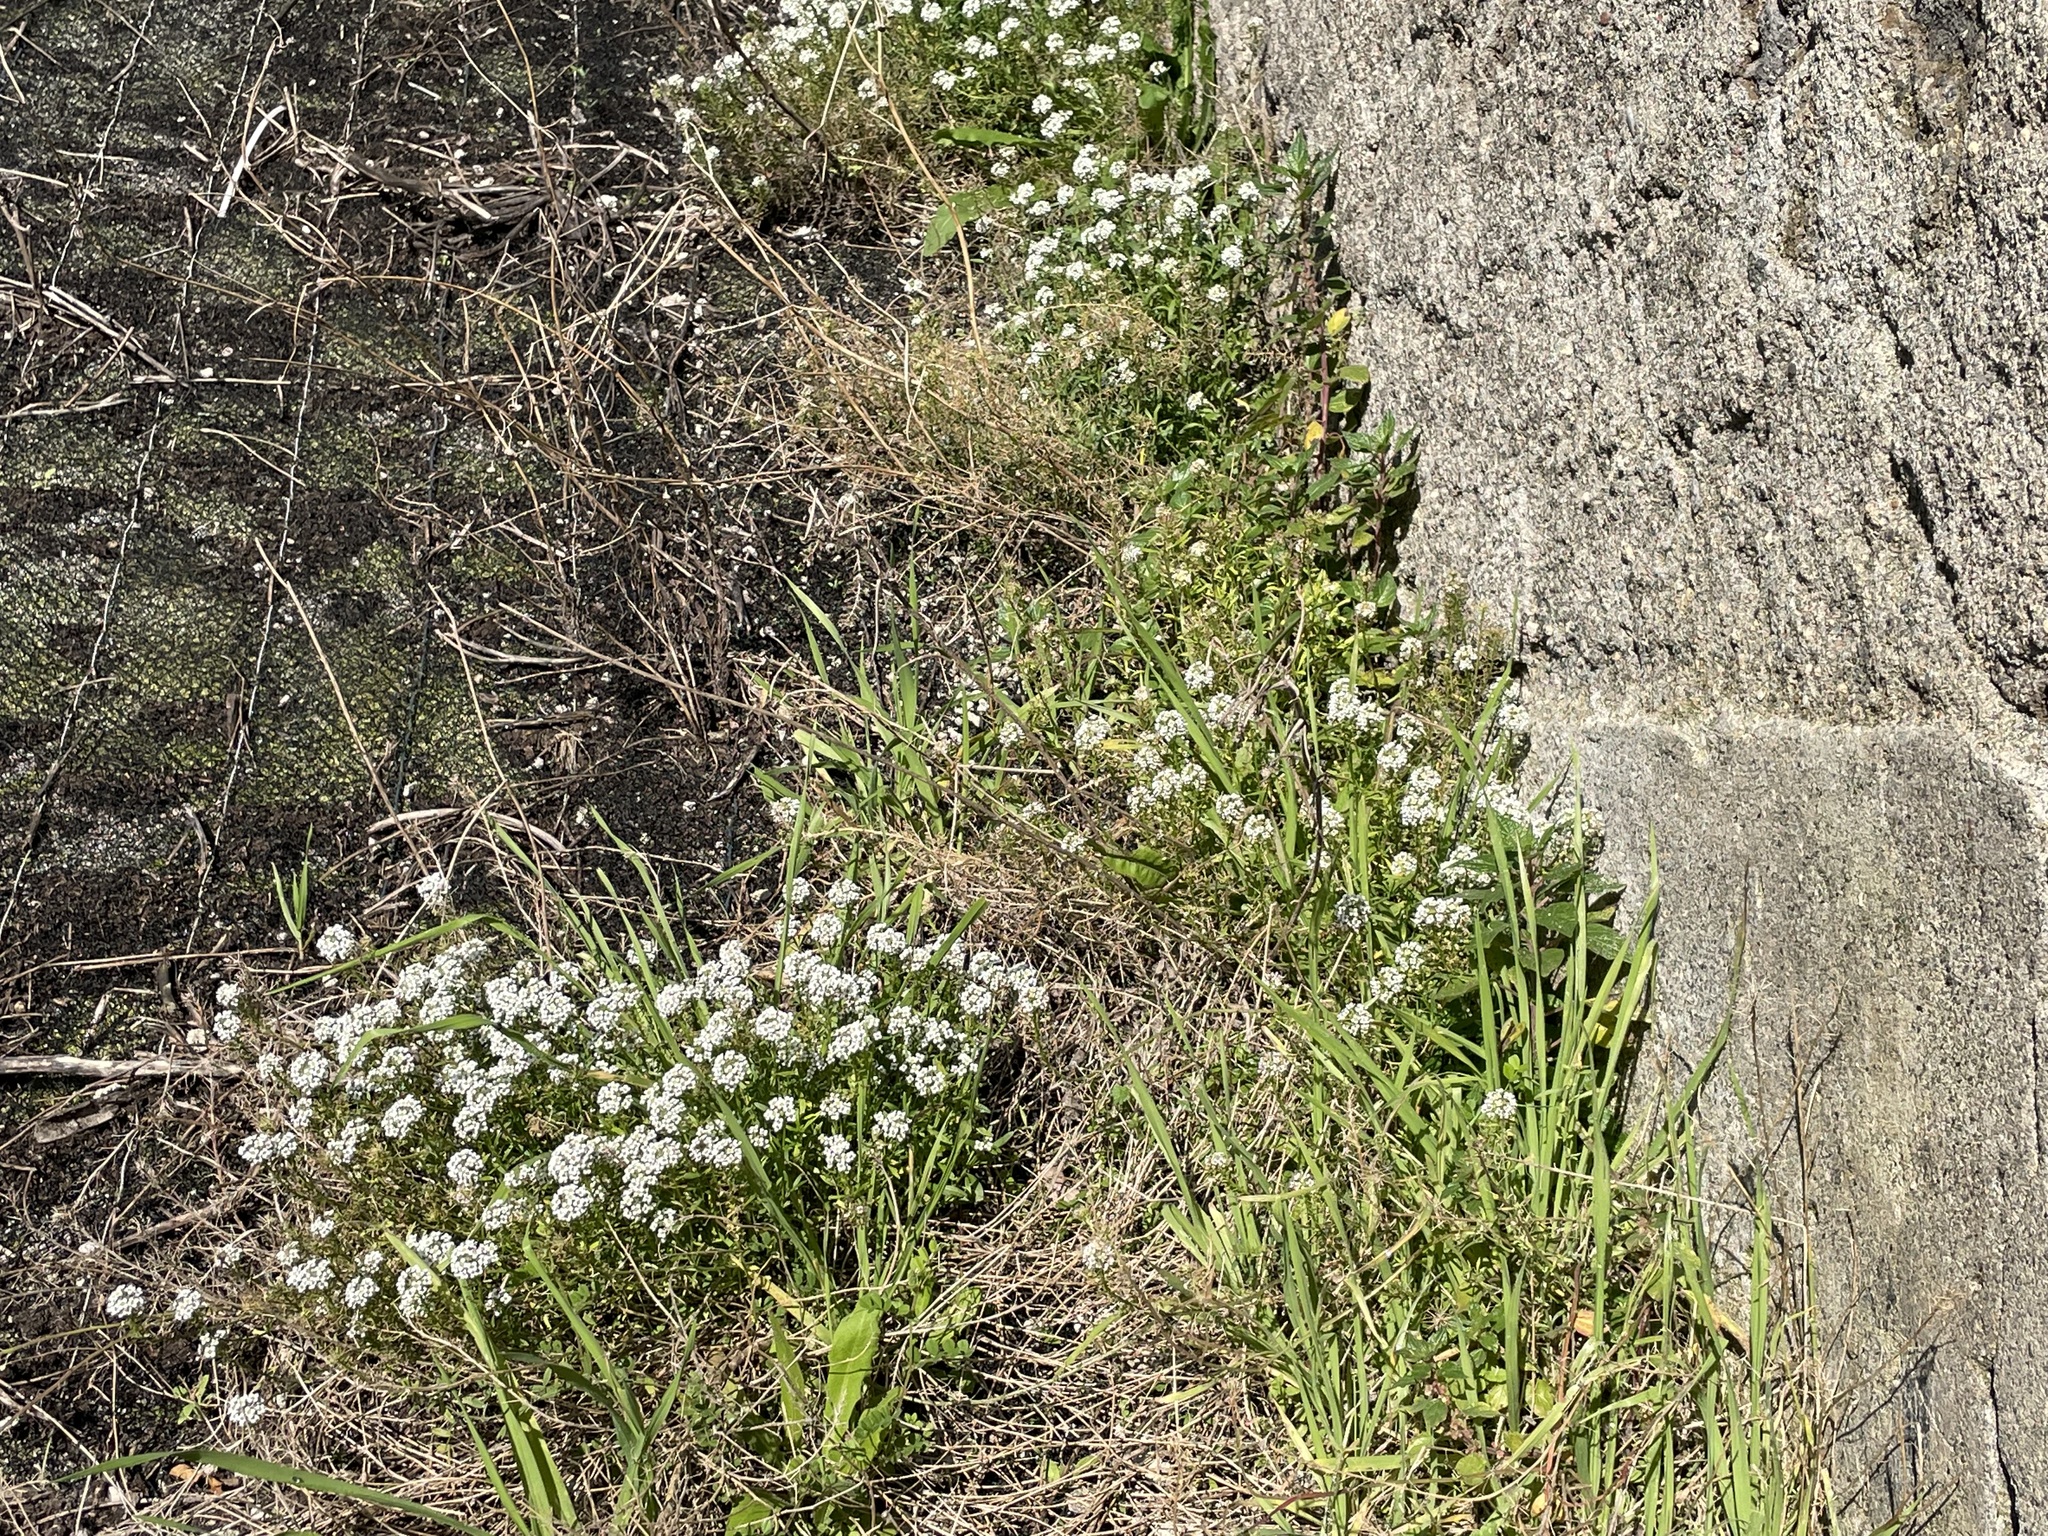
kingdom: Plantae
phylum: Tracheophyta
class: Magnoliopsida
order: Brassicales
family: Brassicaceae
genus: Lobularia
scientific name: Lobularia maritima
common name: Sweet alison
